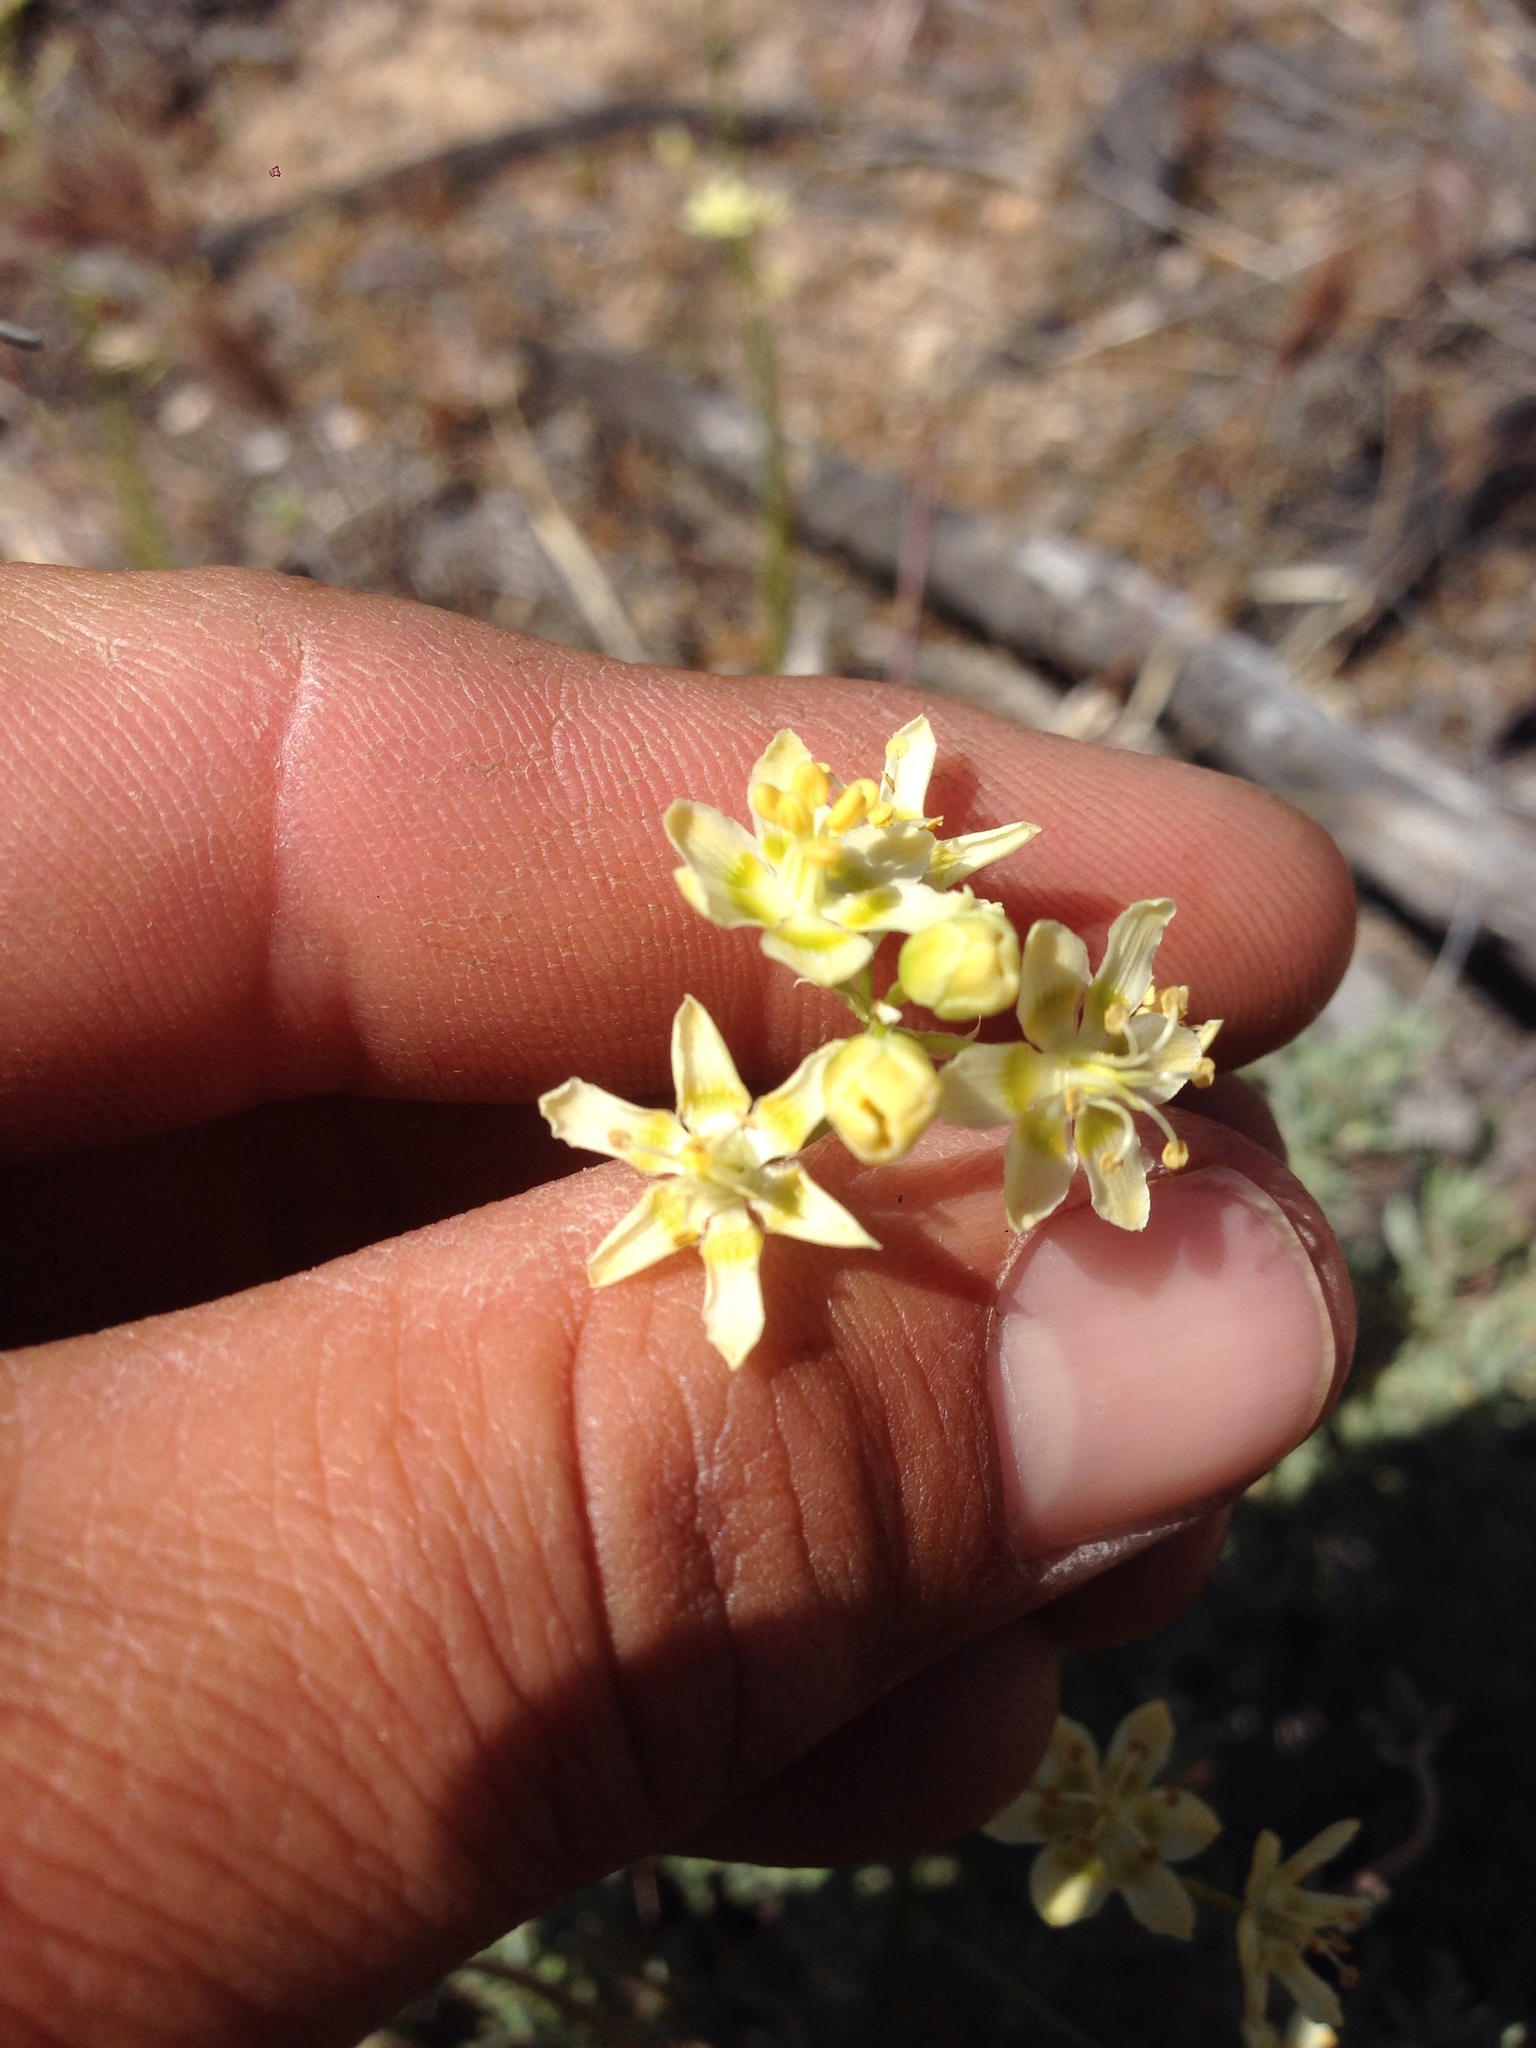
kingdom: Plantae
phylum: Tracheophyta
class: Liliopsida
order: Liliales
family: Melanthiaceae
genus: Toxicoscordion
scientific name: Toxicoscordion brevibracteatum
